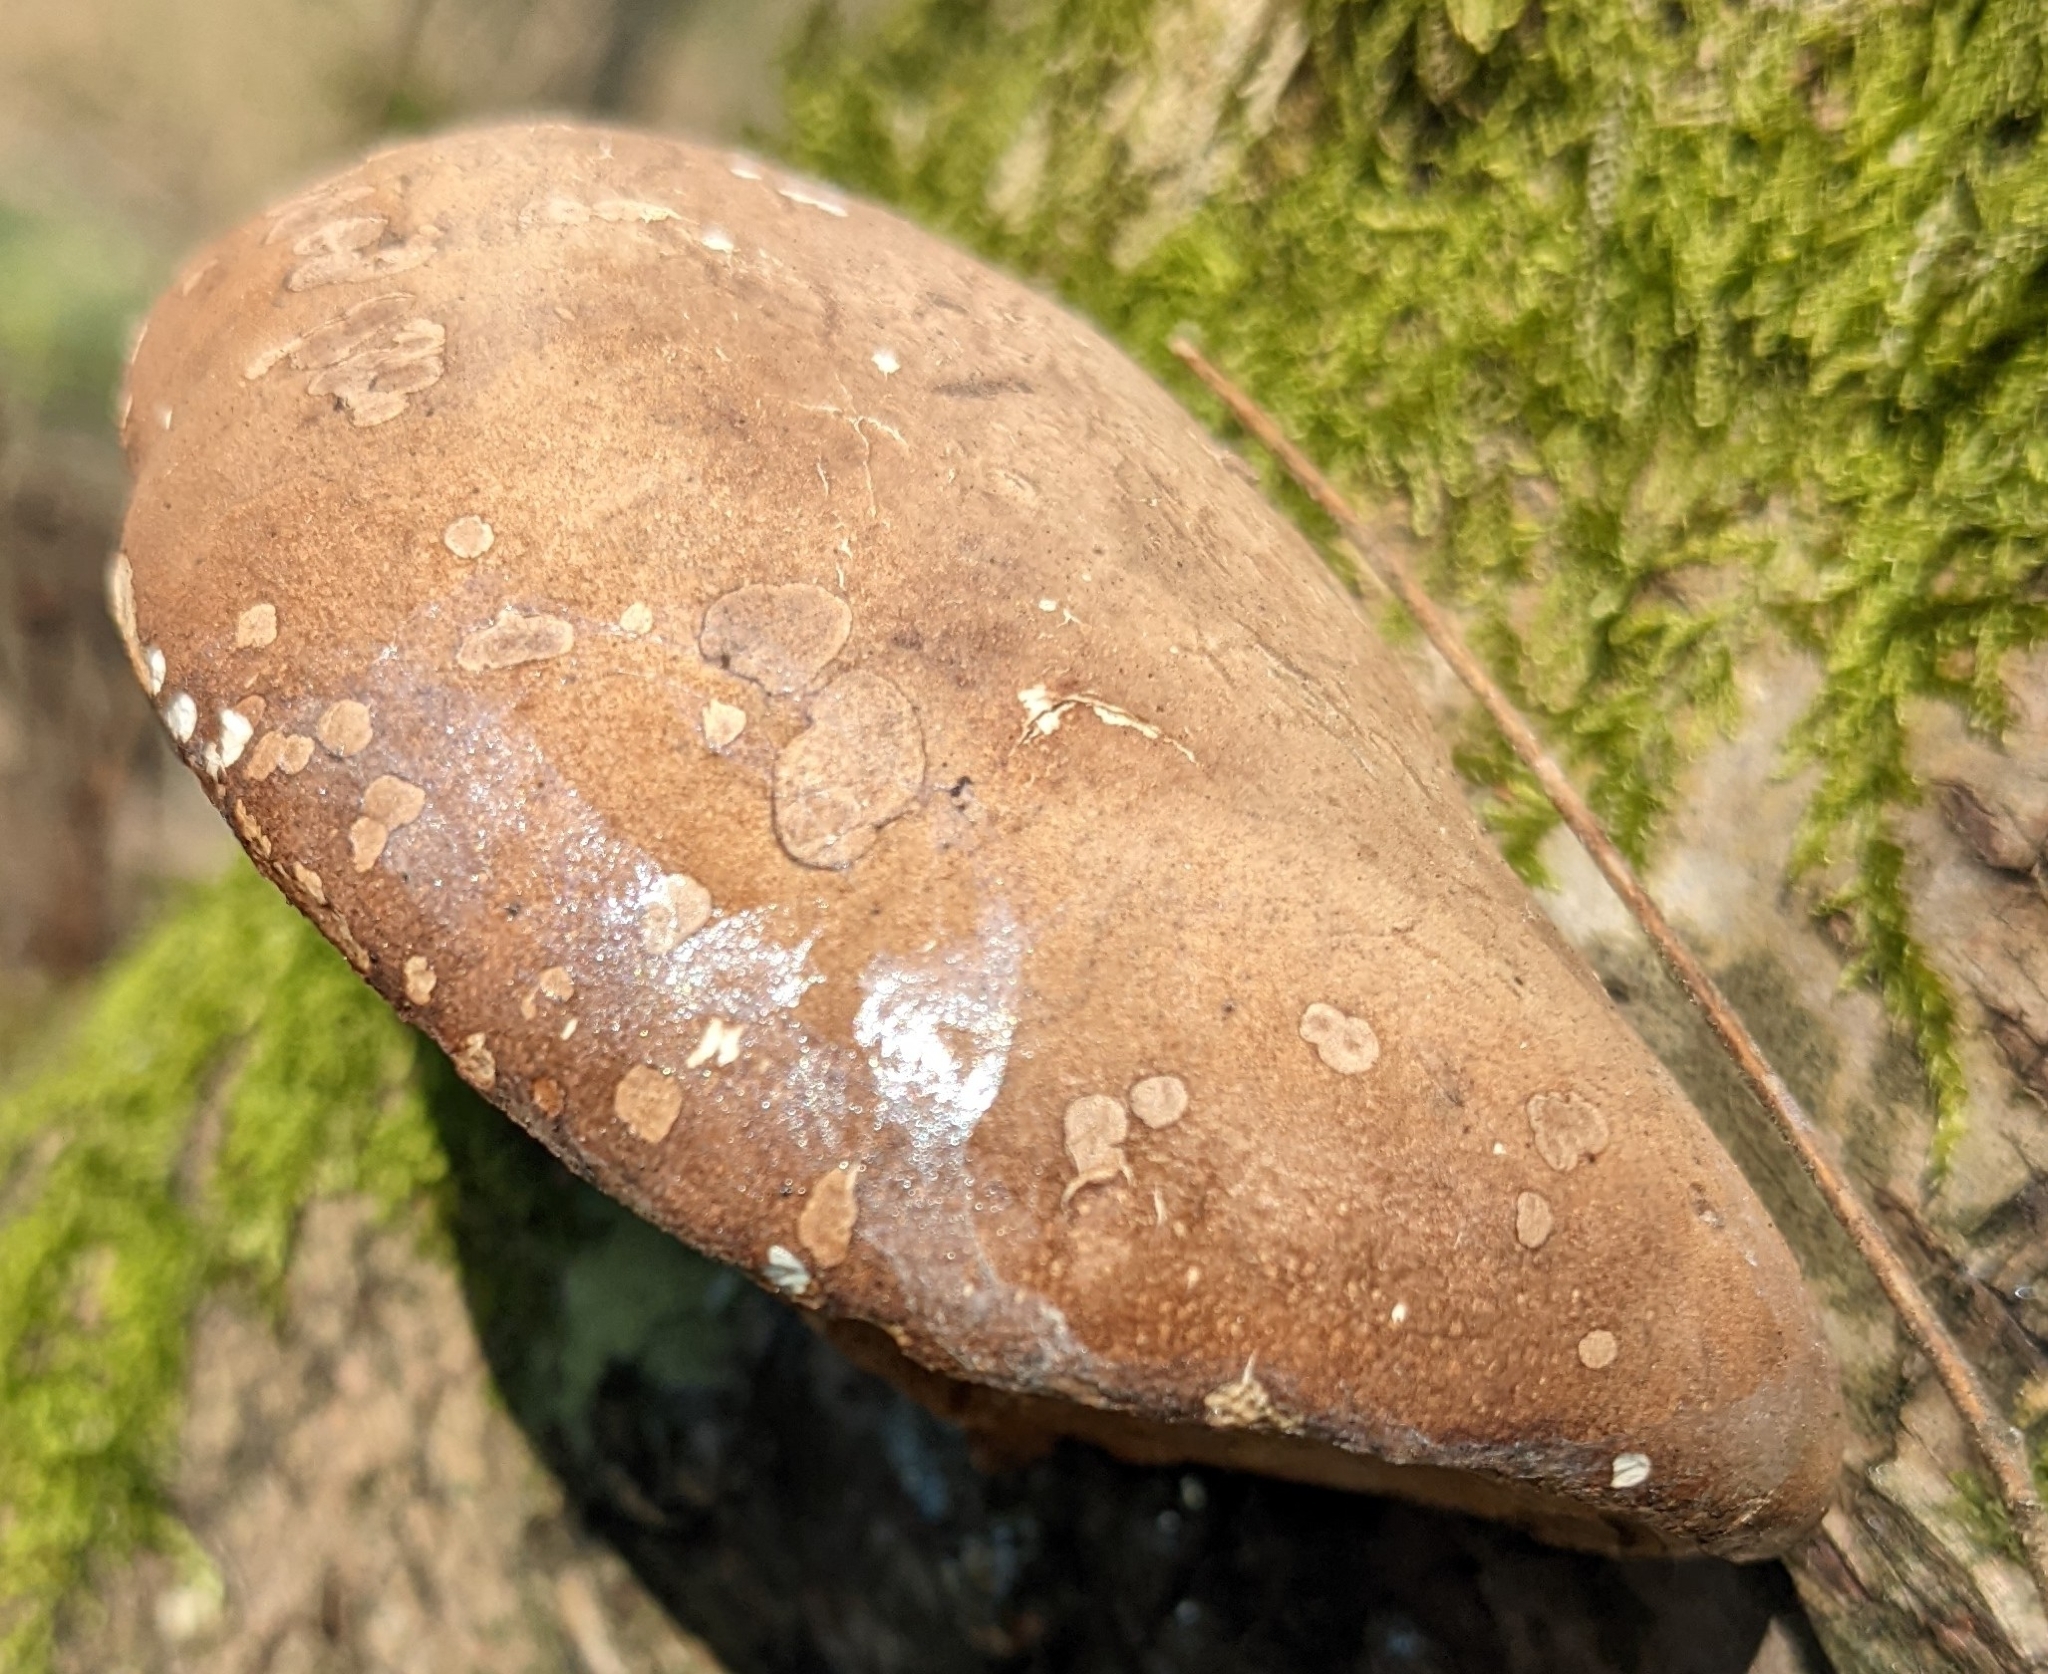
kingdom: Fungi
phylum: Basidiomycota
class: Agaricomycetes
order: Polyporales
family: Fomitopsidaceae
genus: Fomitopsis
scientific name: Fomitopsis betulina
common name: Birch polypore
